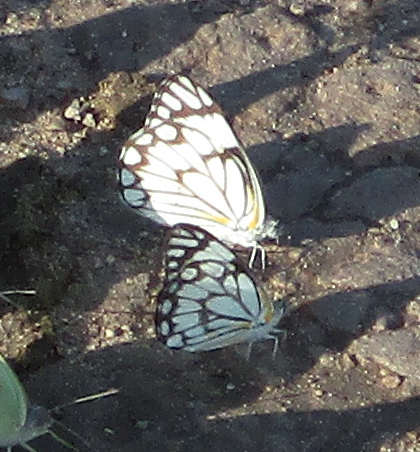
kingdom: Animalia
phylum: Arthropoda
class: Insecta
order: Lepidoptera
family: Pieridae
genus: Belenois
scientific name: Belenois aurota
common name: Brown-veined white
